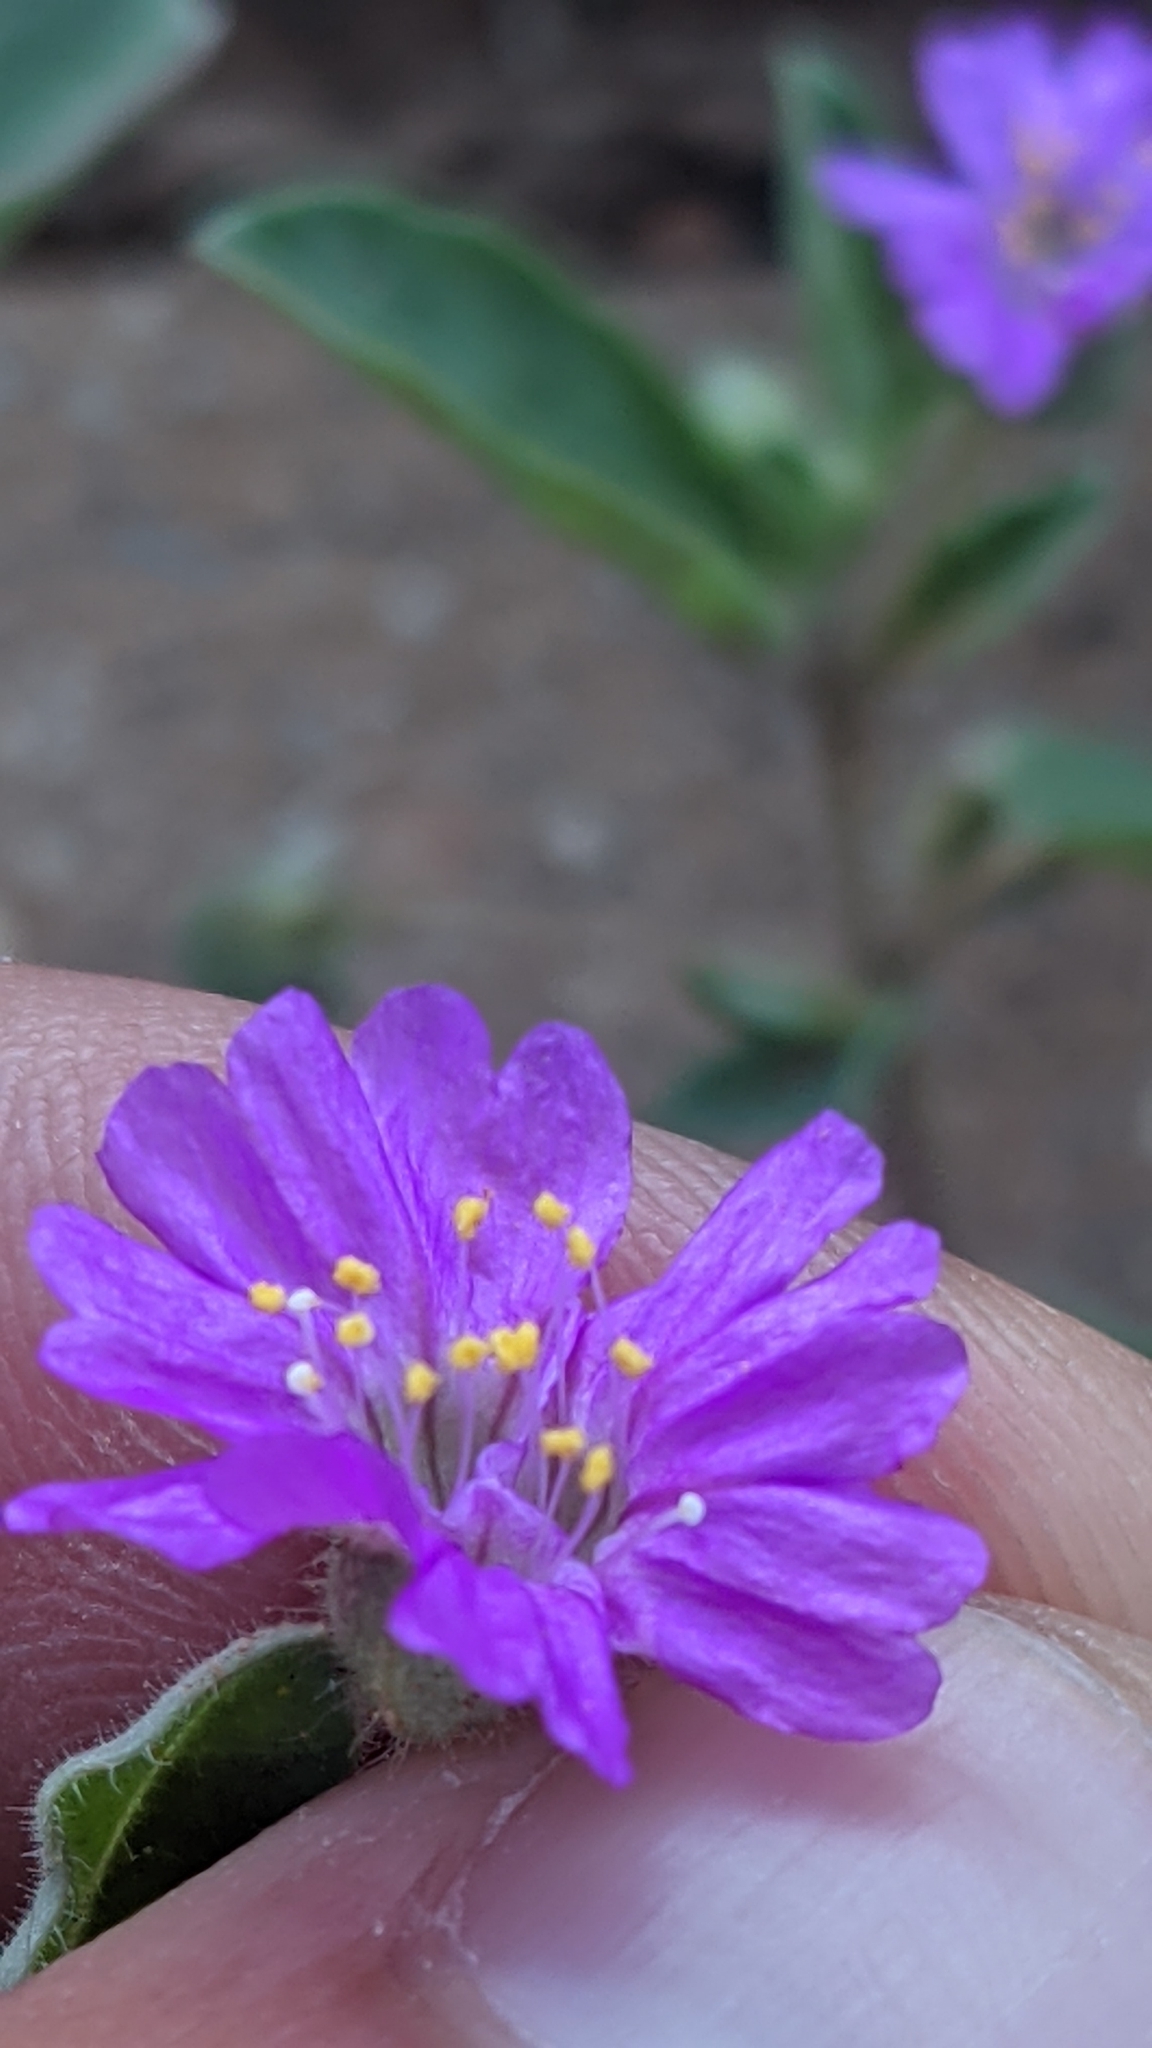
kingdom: Plantae
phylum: Tracheophyta
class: Magnoliopsida
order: Caryophyllales
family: Nyctaginaceae
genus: Allionia
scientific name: Allionia incarnata
